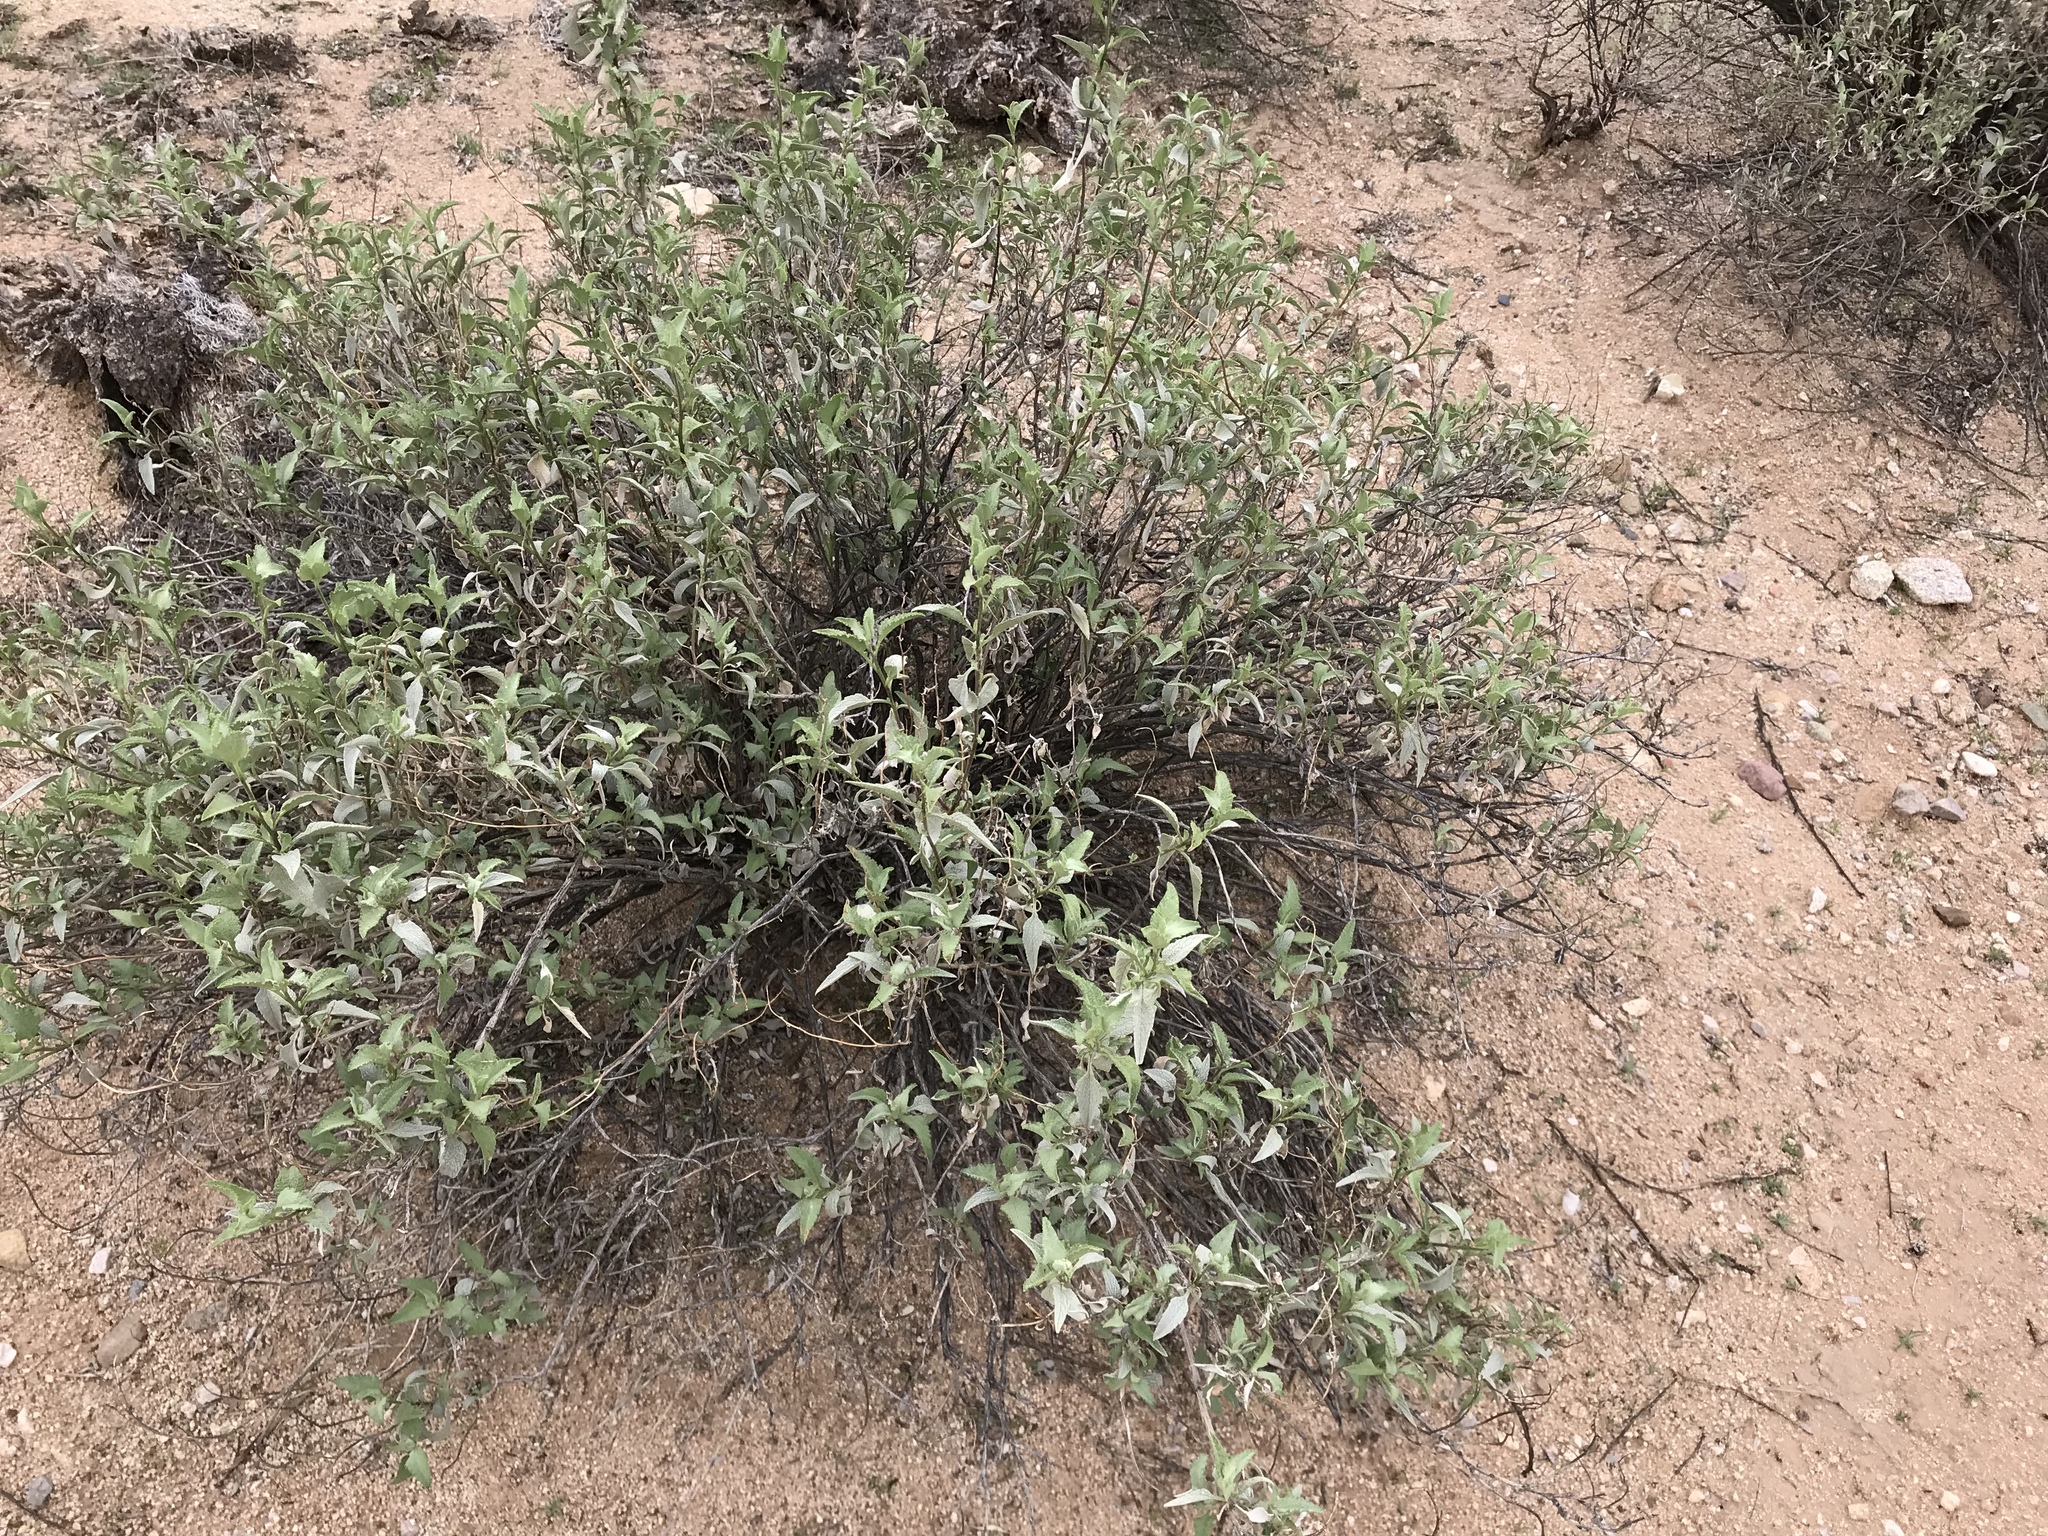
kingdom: Plantae
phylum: Tracheophyta
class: Magnoliopsida
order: Asterales
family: Asteraceae
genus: Ambrosia
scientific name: Ambrosia deltoidea
